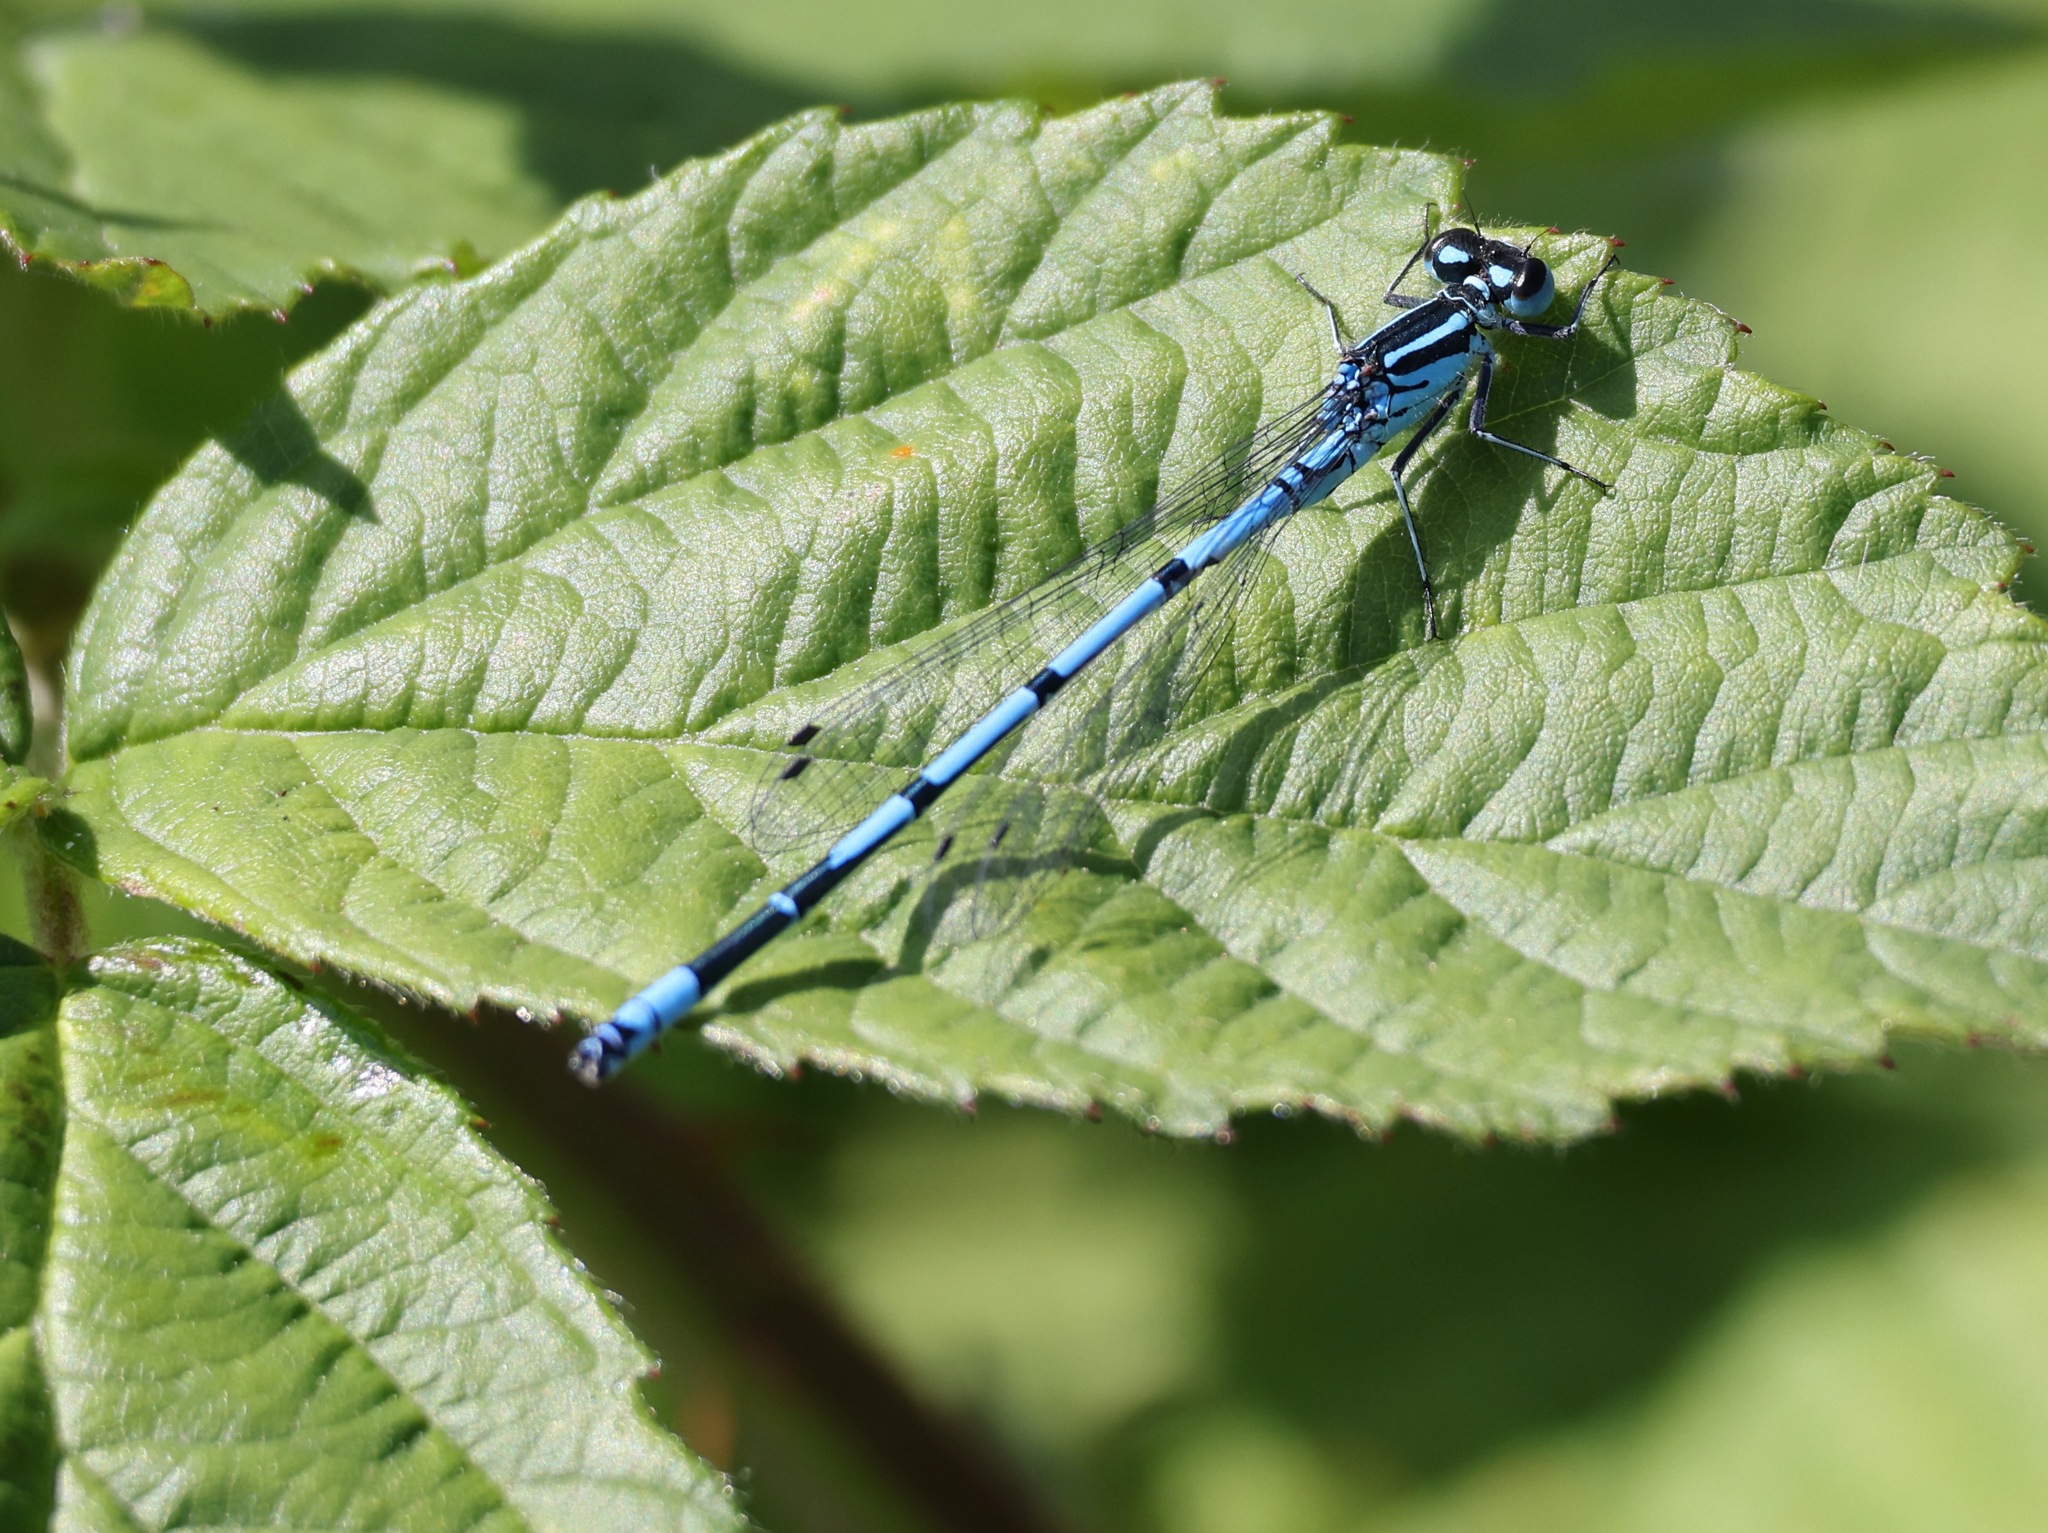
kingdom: Animalia
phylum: Arthropoda
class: Insecta
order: Odonata
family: Coenagrionidae
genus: Coenagrion
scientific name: Coenagrion puella
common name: Azure damselfly
